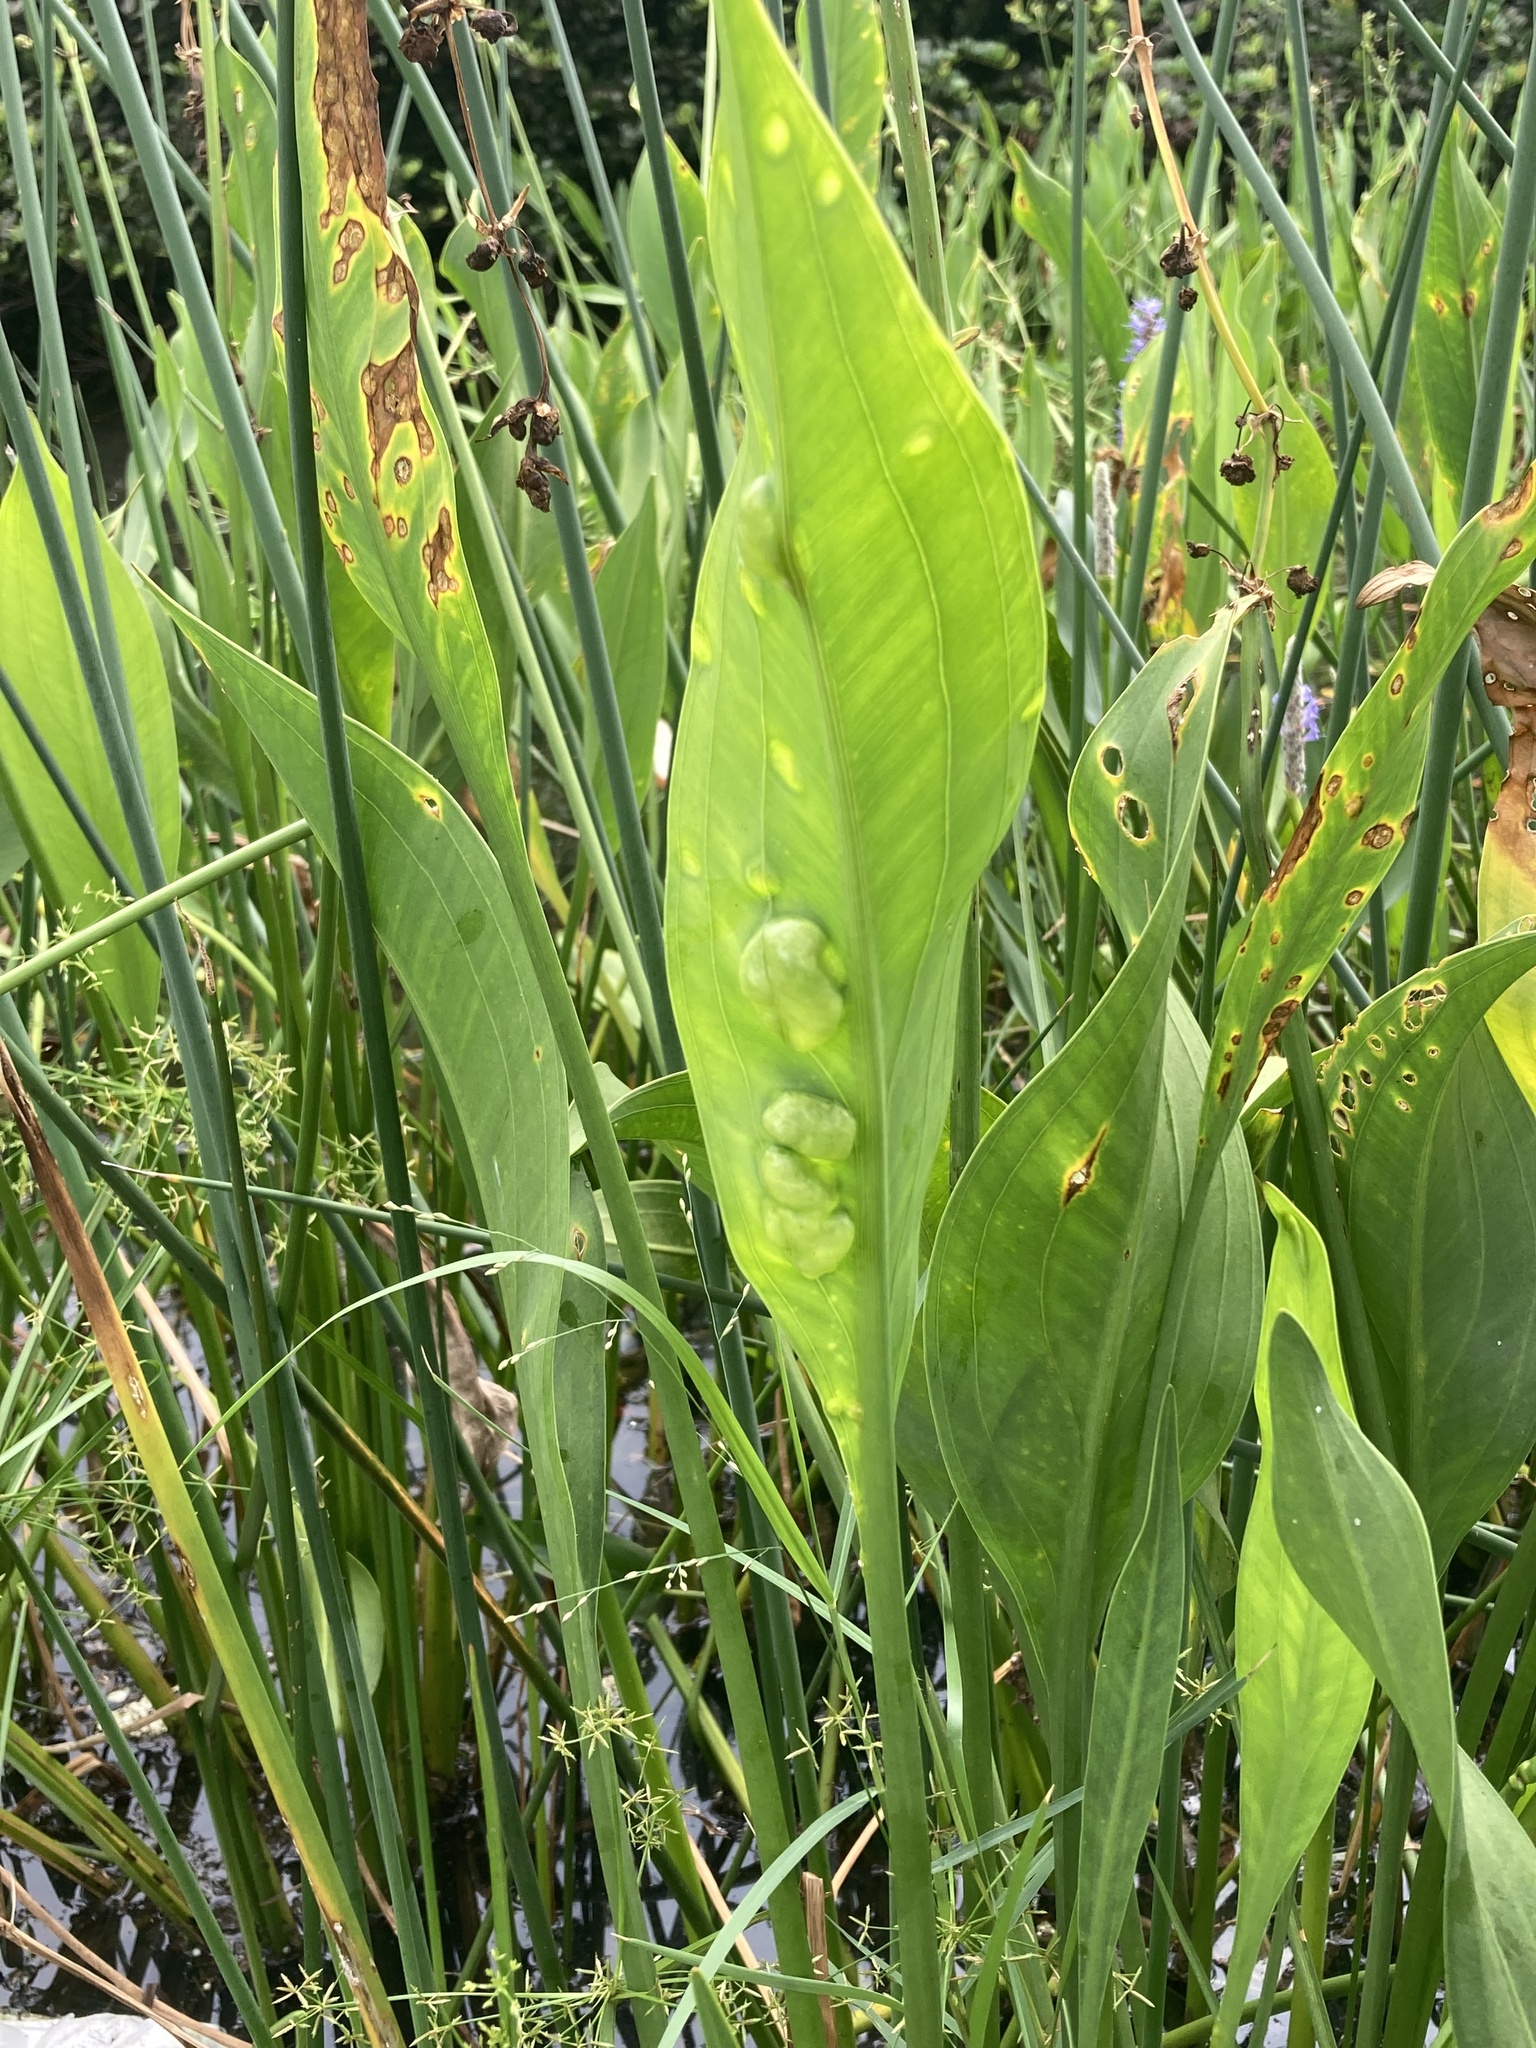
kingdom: Plantae
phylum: Tracheophyta
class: Liliopsida
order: Alismatales
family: Alismataceae
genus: Sagittaria
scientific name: Sagittaria lancifolia
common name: Lance-leaf arrowhead
